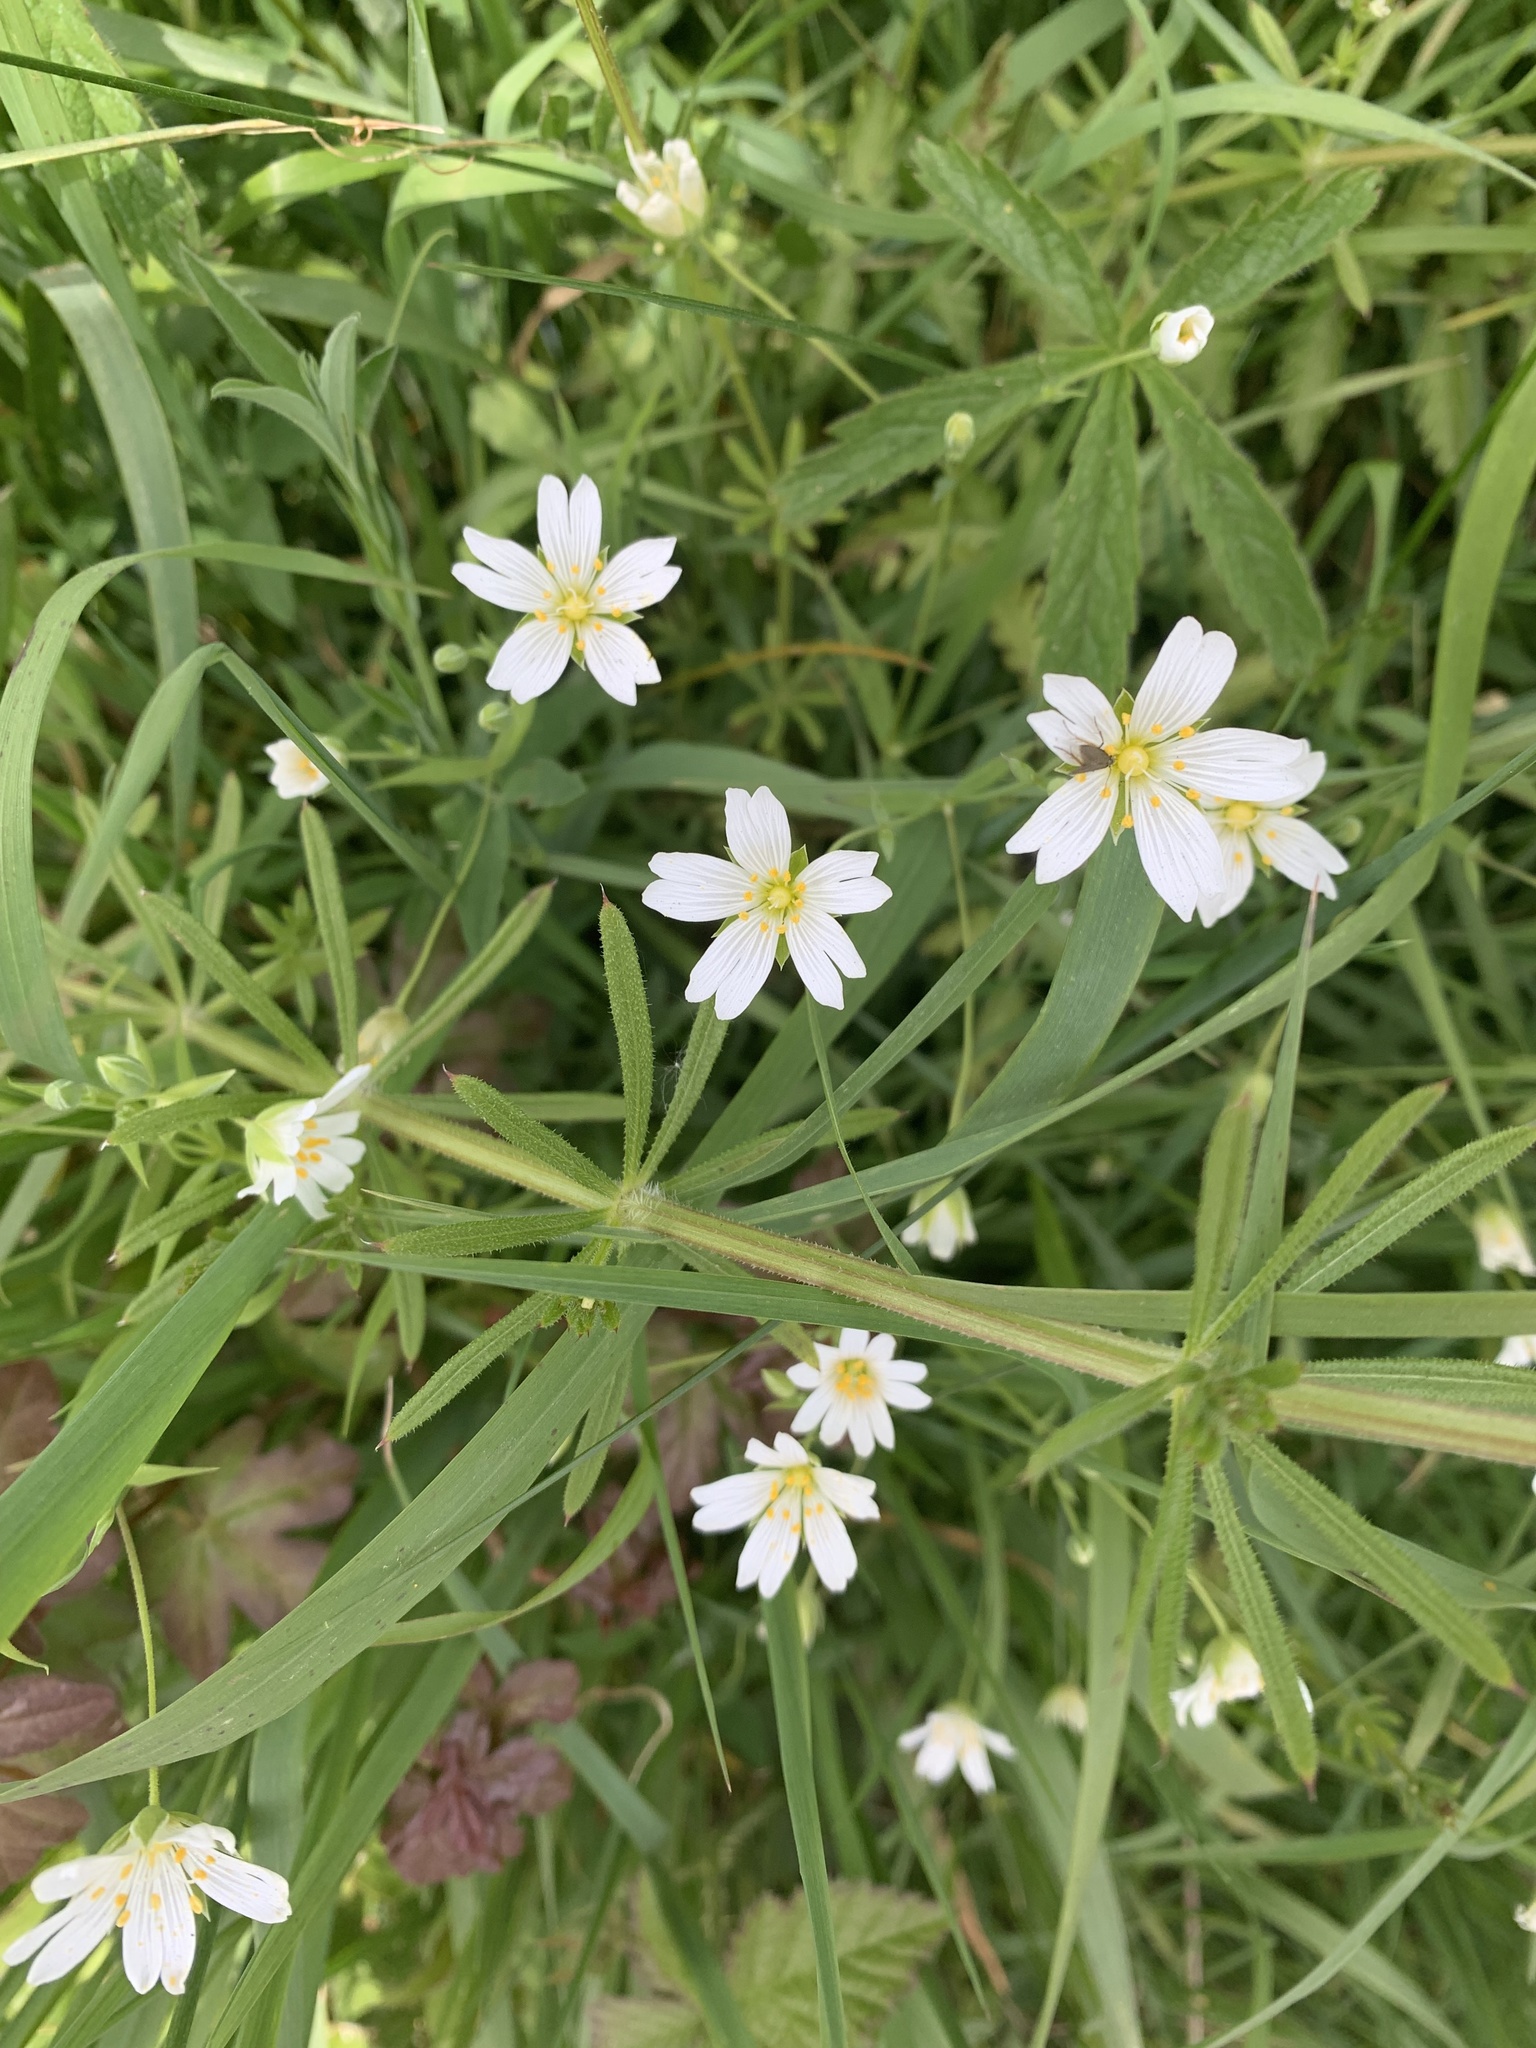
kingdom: Plantae
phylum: Tracheophyta
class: Magnoliopsida
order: Caryophyllales
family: Caryophyllaceae
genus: Rabelera
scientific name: Rabelera holostea
